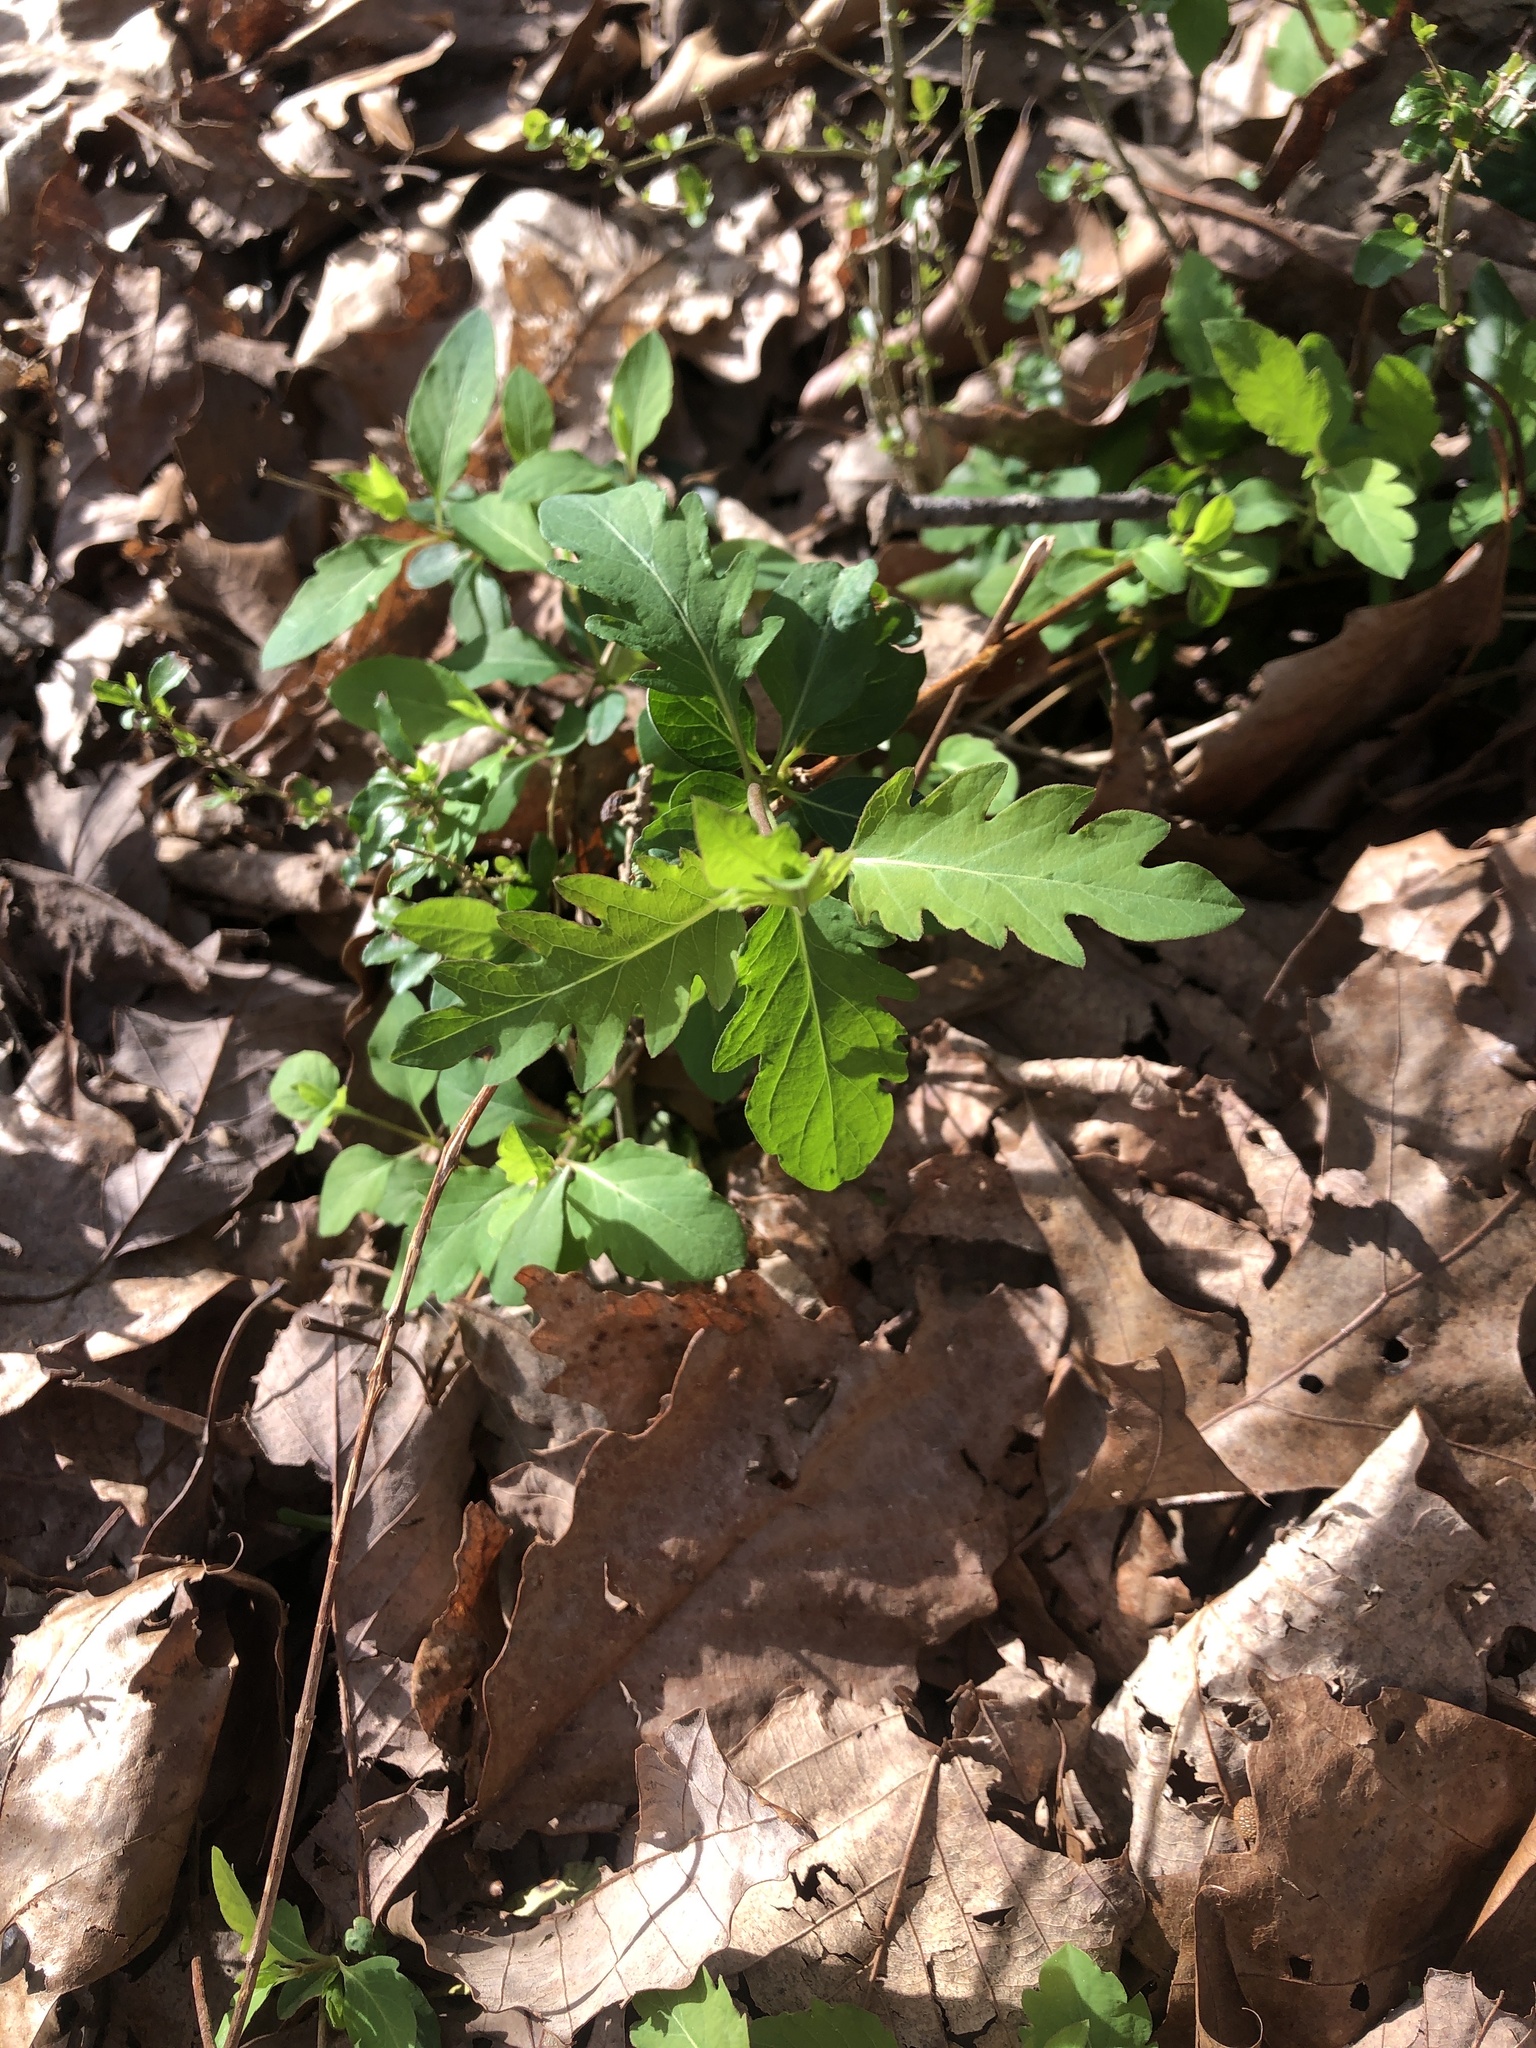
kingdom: Plantae
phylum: Tracheophyta
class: Magnoliopsida
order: Dipsacales
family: Caprifoliaceae
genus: Lonicera
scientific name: Lonicera japonica
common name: Japanese honeysuckle
